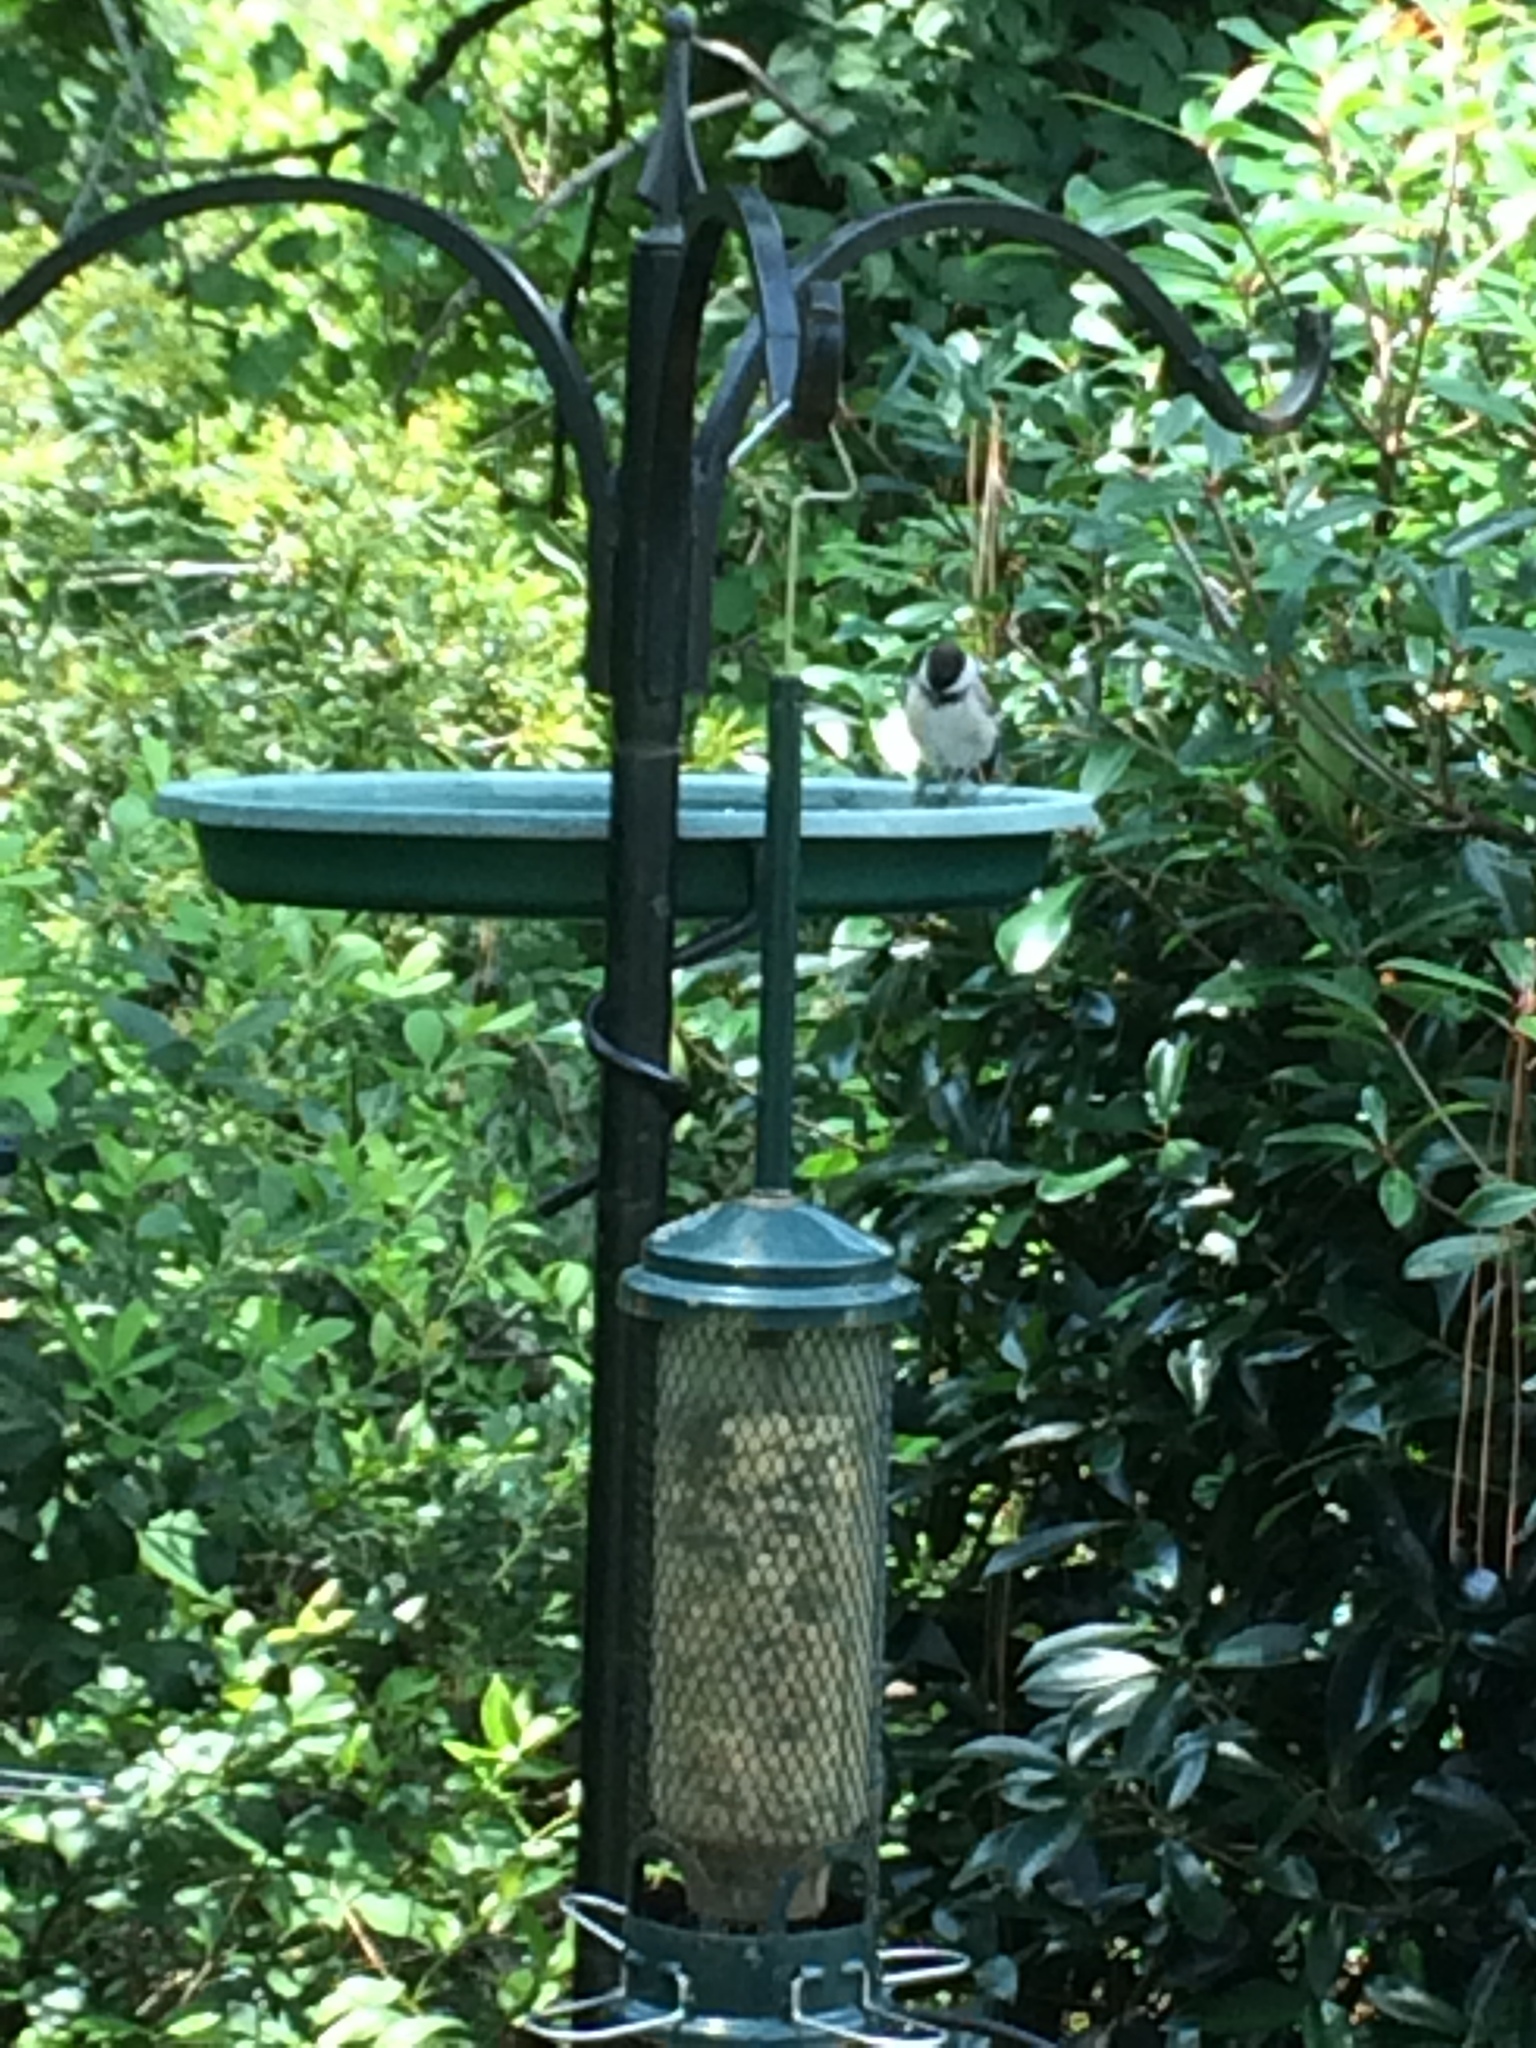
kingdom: Animalia
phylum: Chordata
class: Aves
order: Passeriformes
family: Paridae
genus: Poecile
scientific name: Poecile carolinensis
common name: Carolina chickadee
